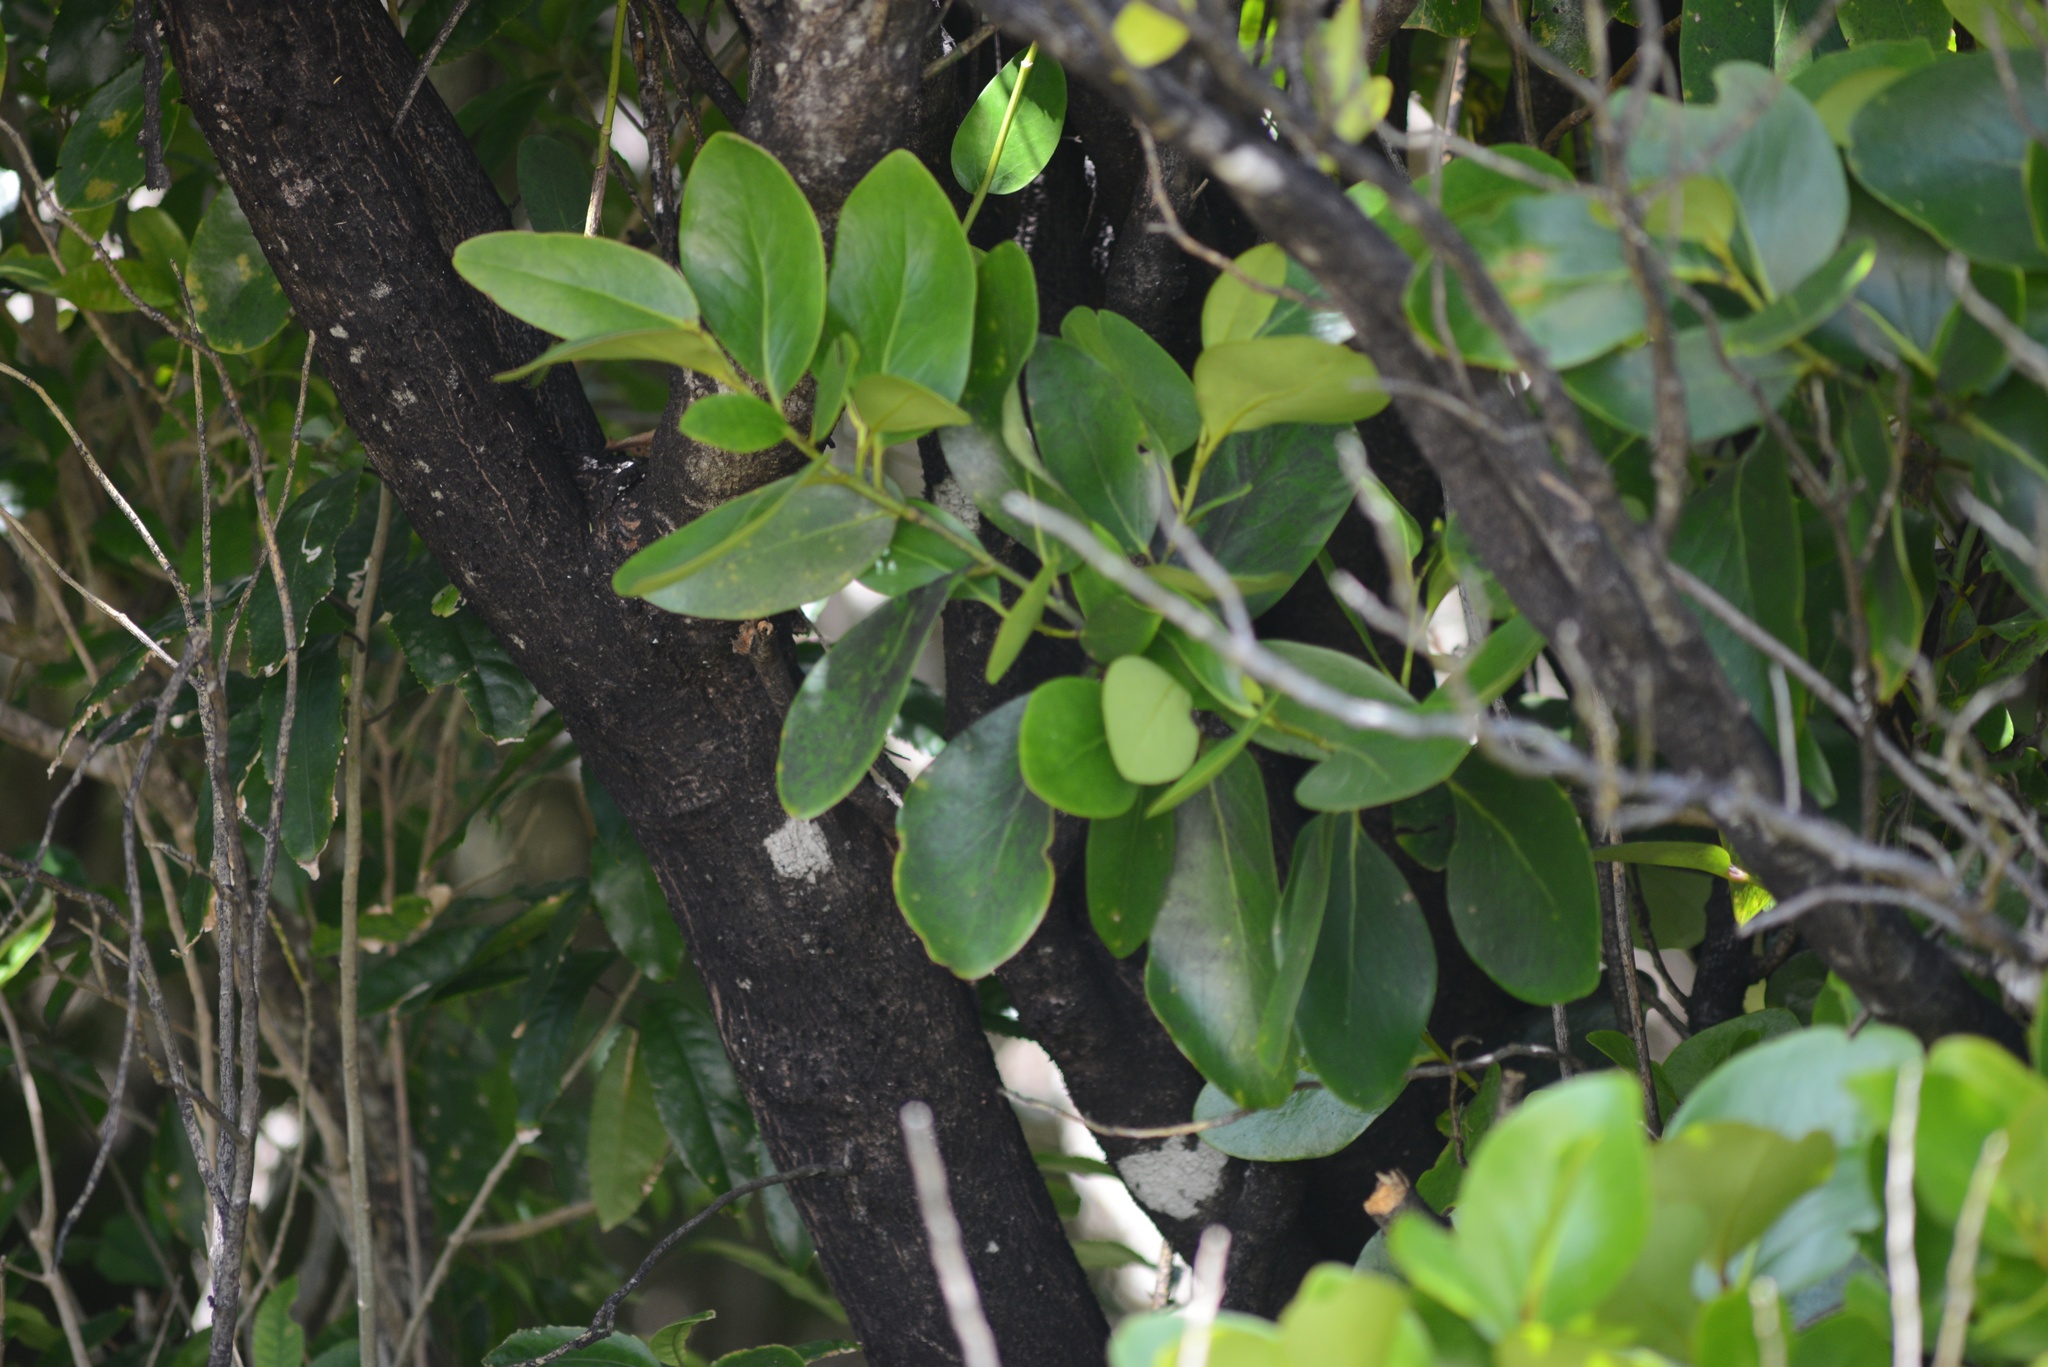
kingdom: Plantae
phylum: Tracheophyta
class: Magnoliopsida
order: Apiales
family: Griseliniaceae
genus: Griselinia
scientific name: Griselinia lucida
